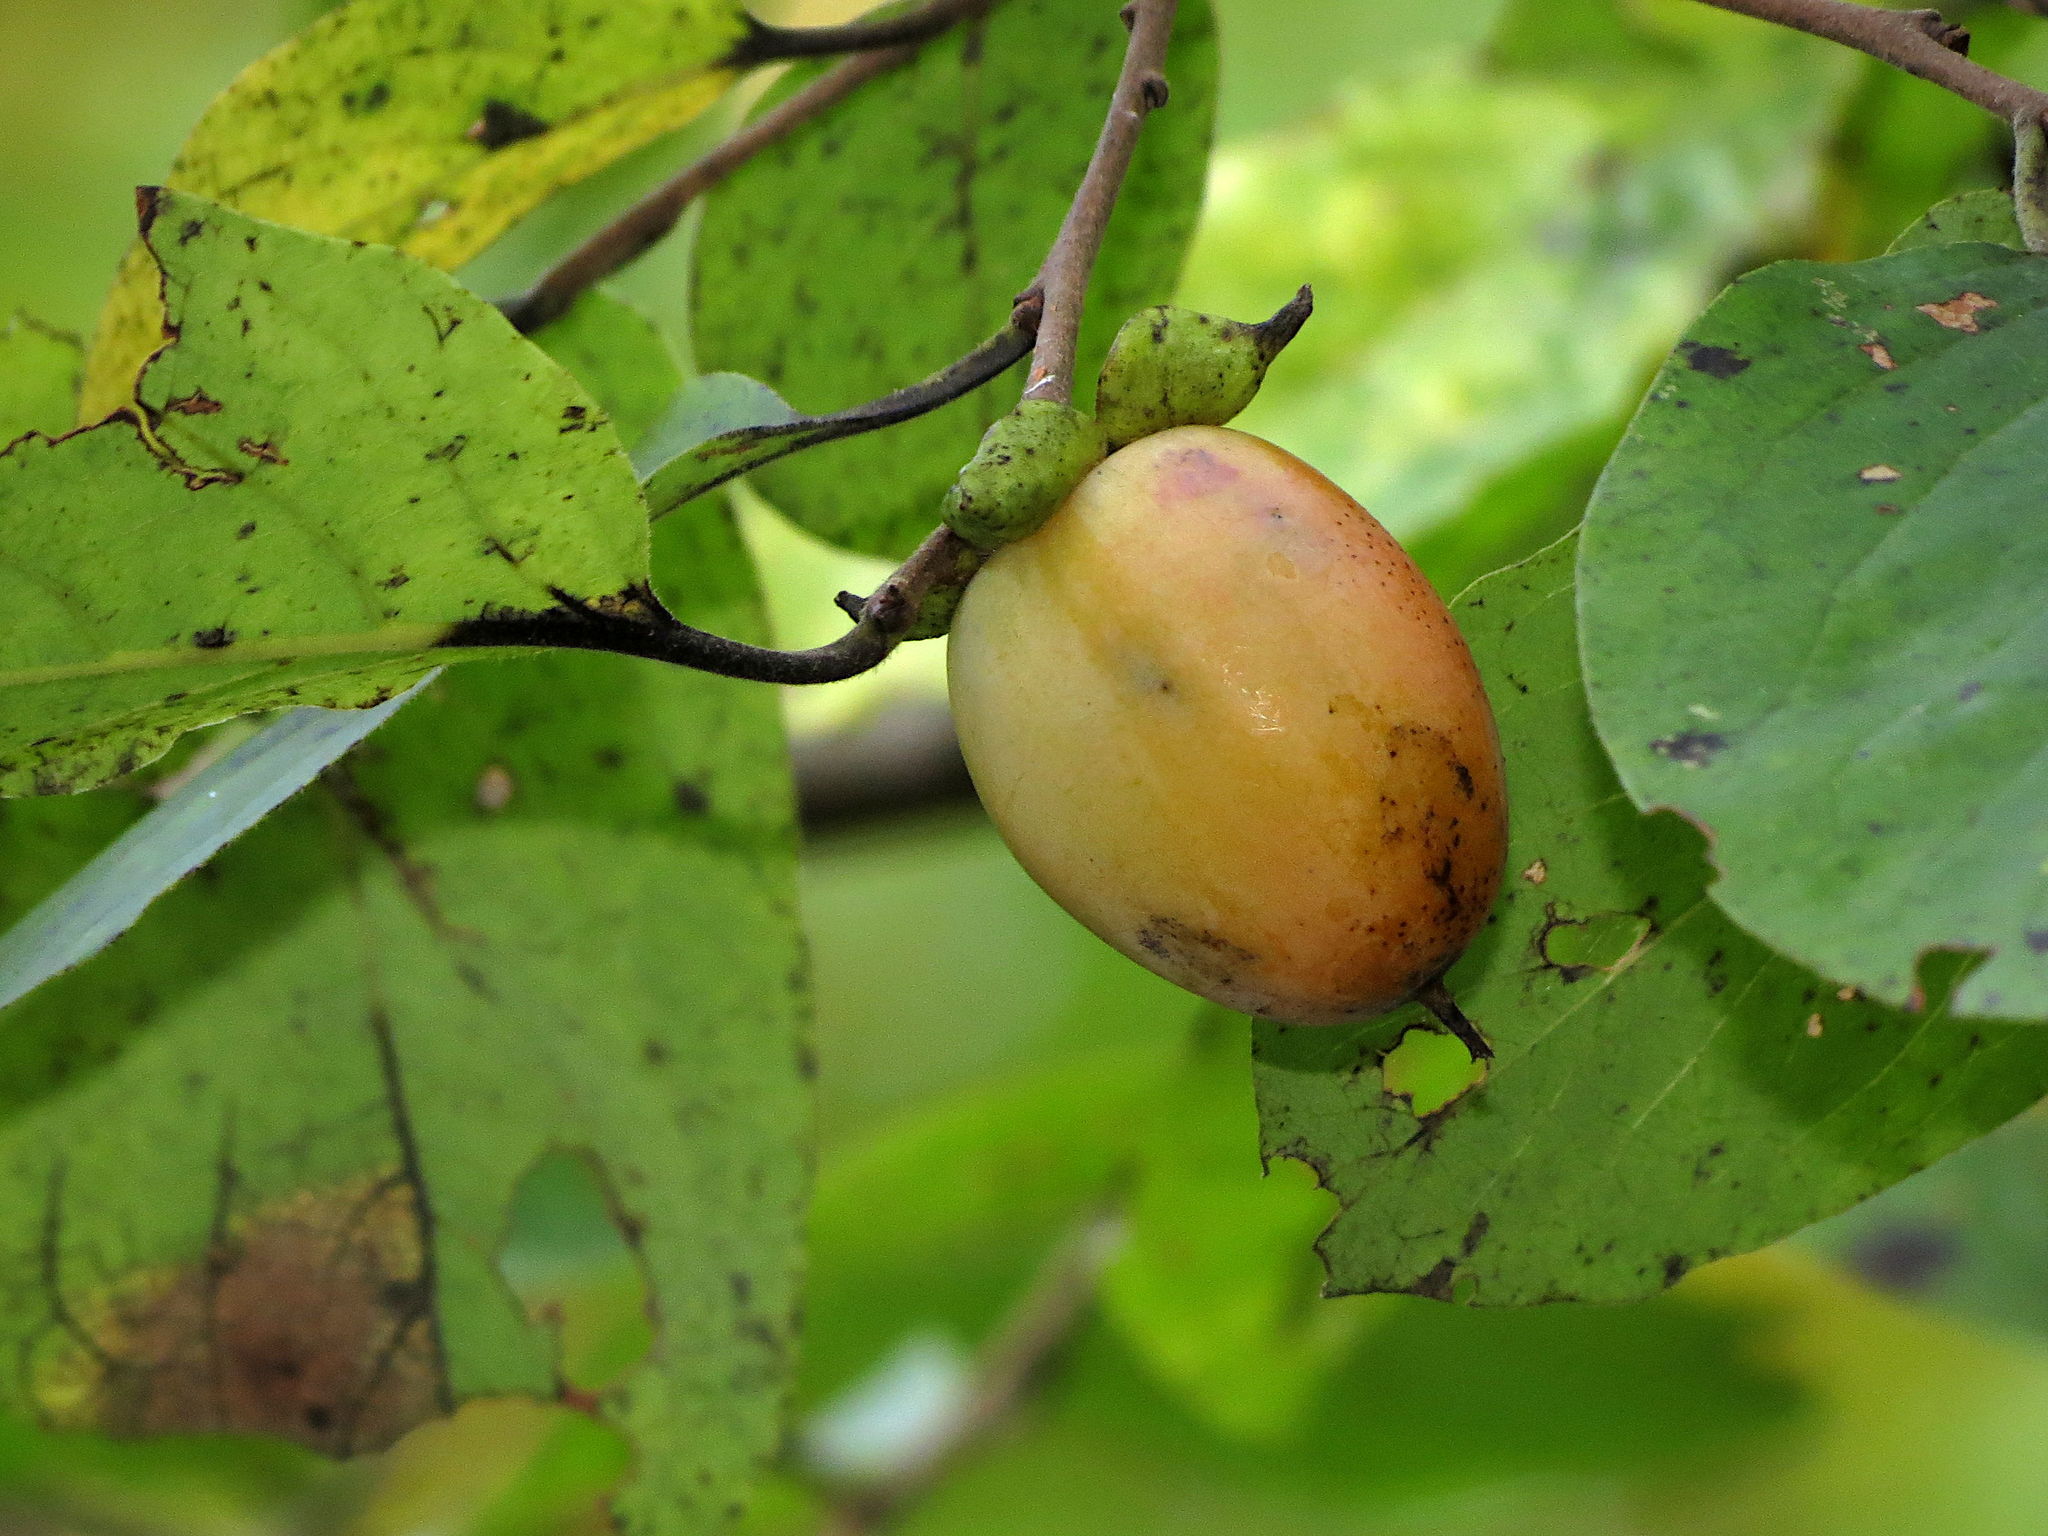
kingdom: Plantae
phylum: Tracheophyta
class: Magnoliopsida
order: Ericales
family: Ebenaceae
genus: Diospyros
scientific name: Diospyros virginiana
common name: Persimmon
